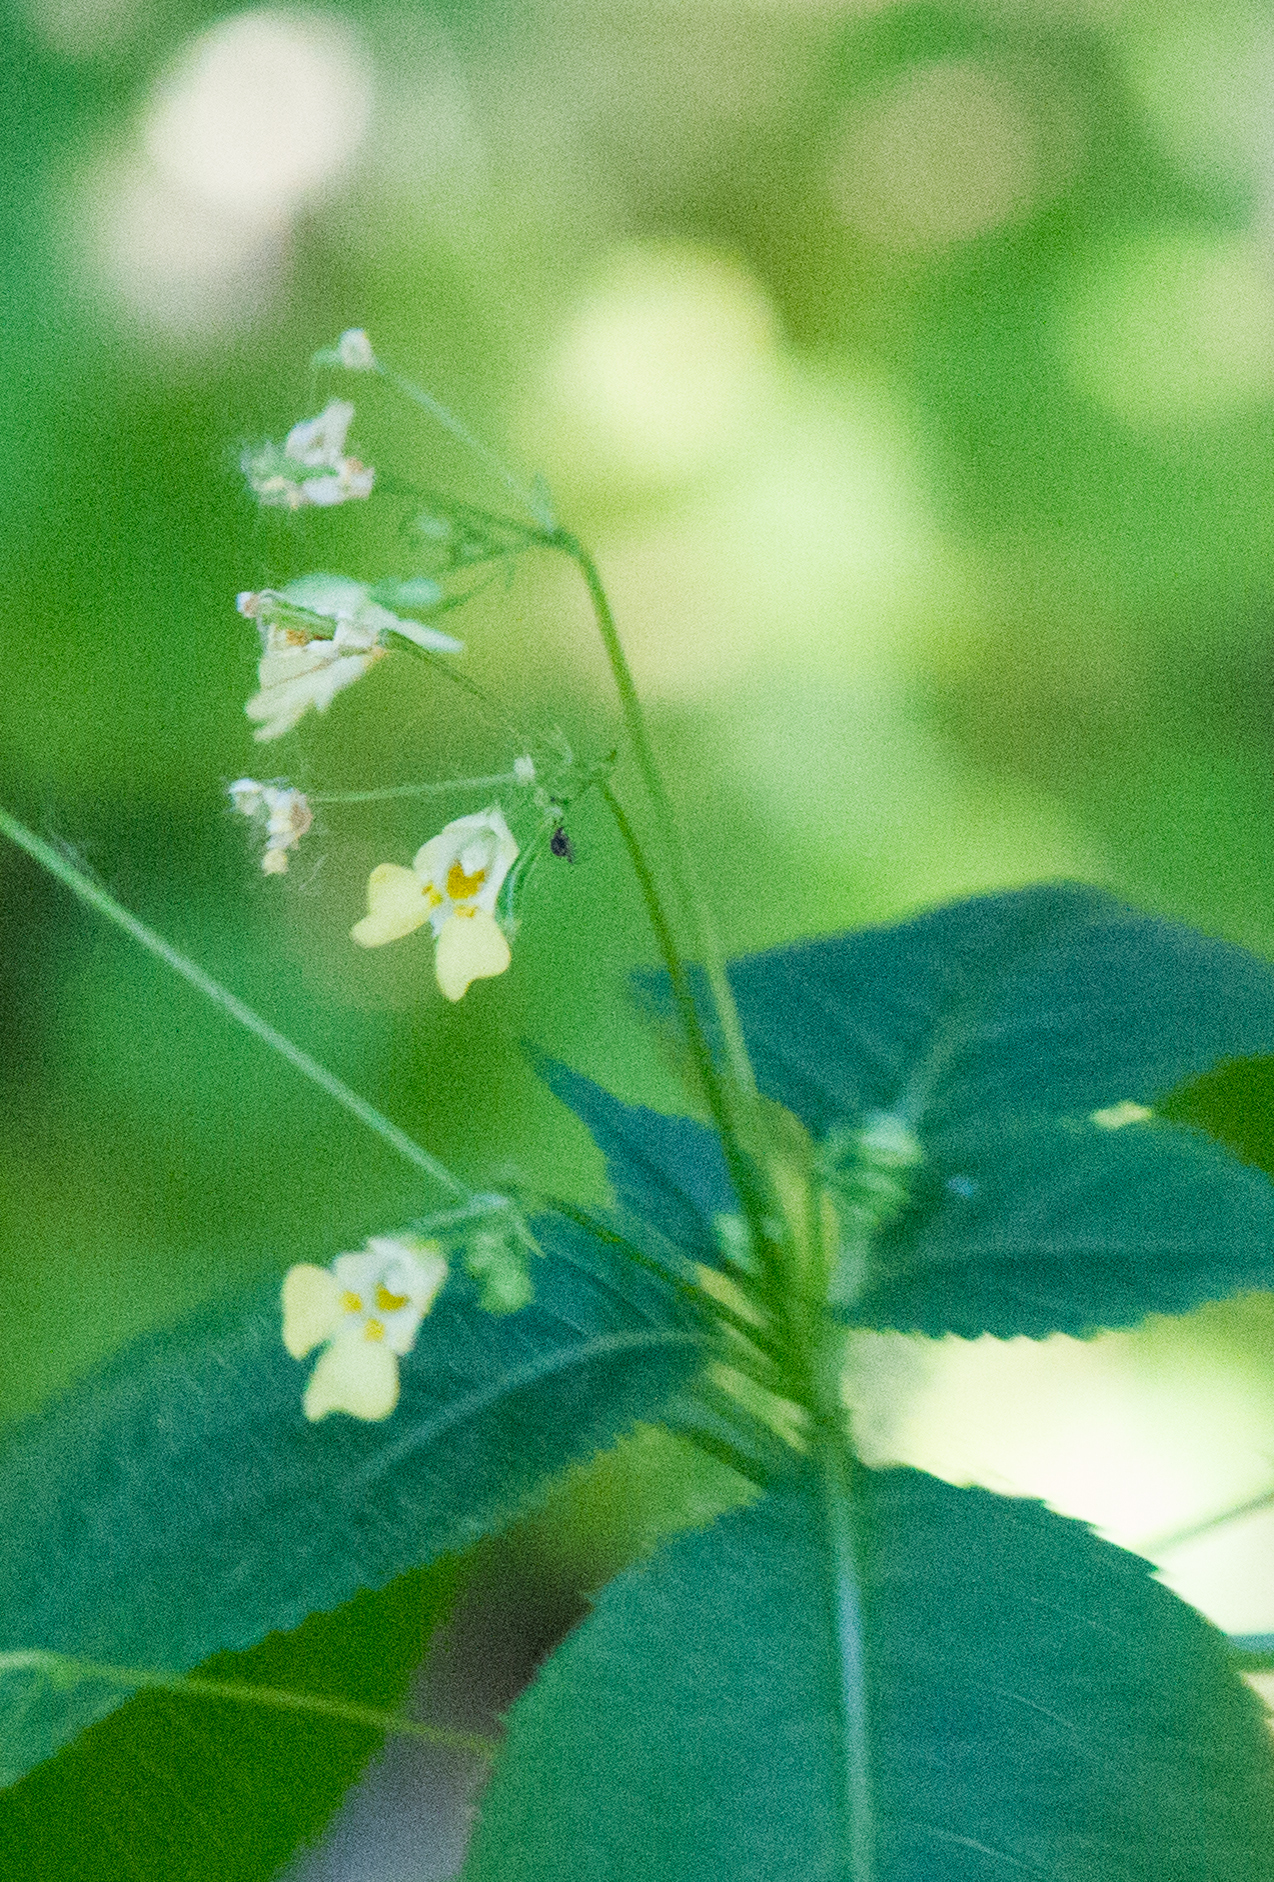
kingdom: Plantae
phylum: Tracheophyta
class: Magnoliopsida
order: Ericales
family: Balsaminaceae
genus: Impatiens
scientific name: Impatiens parviflora
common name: Small balsam
